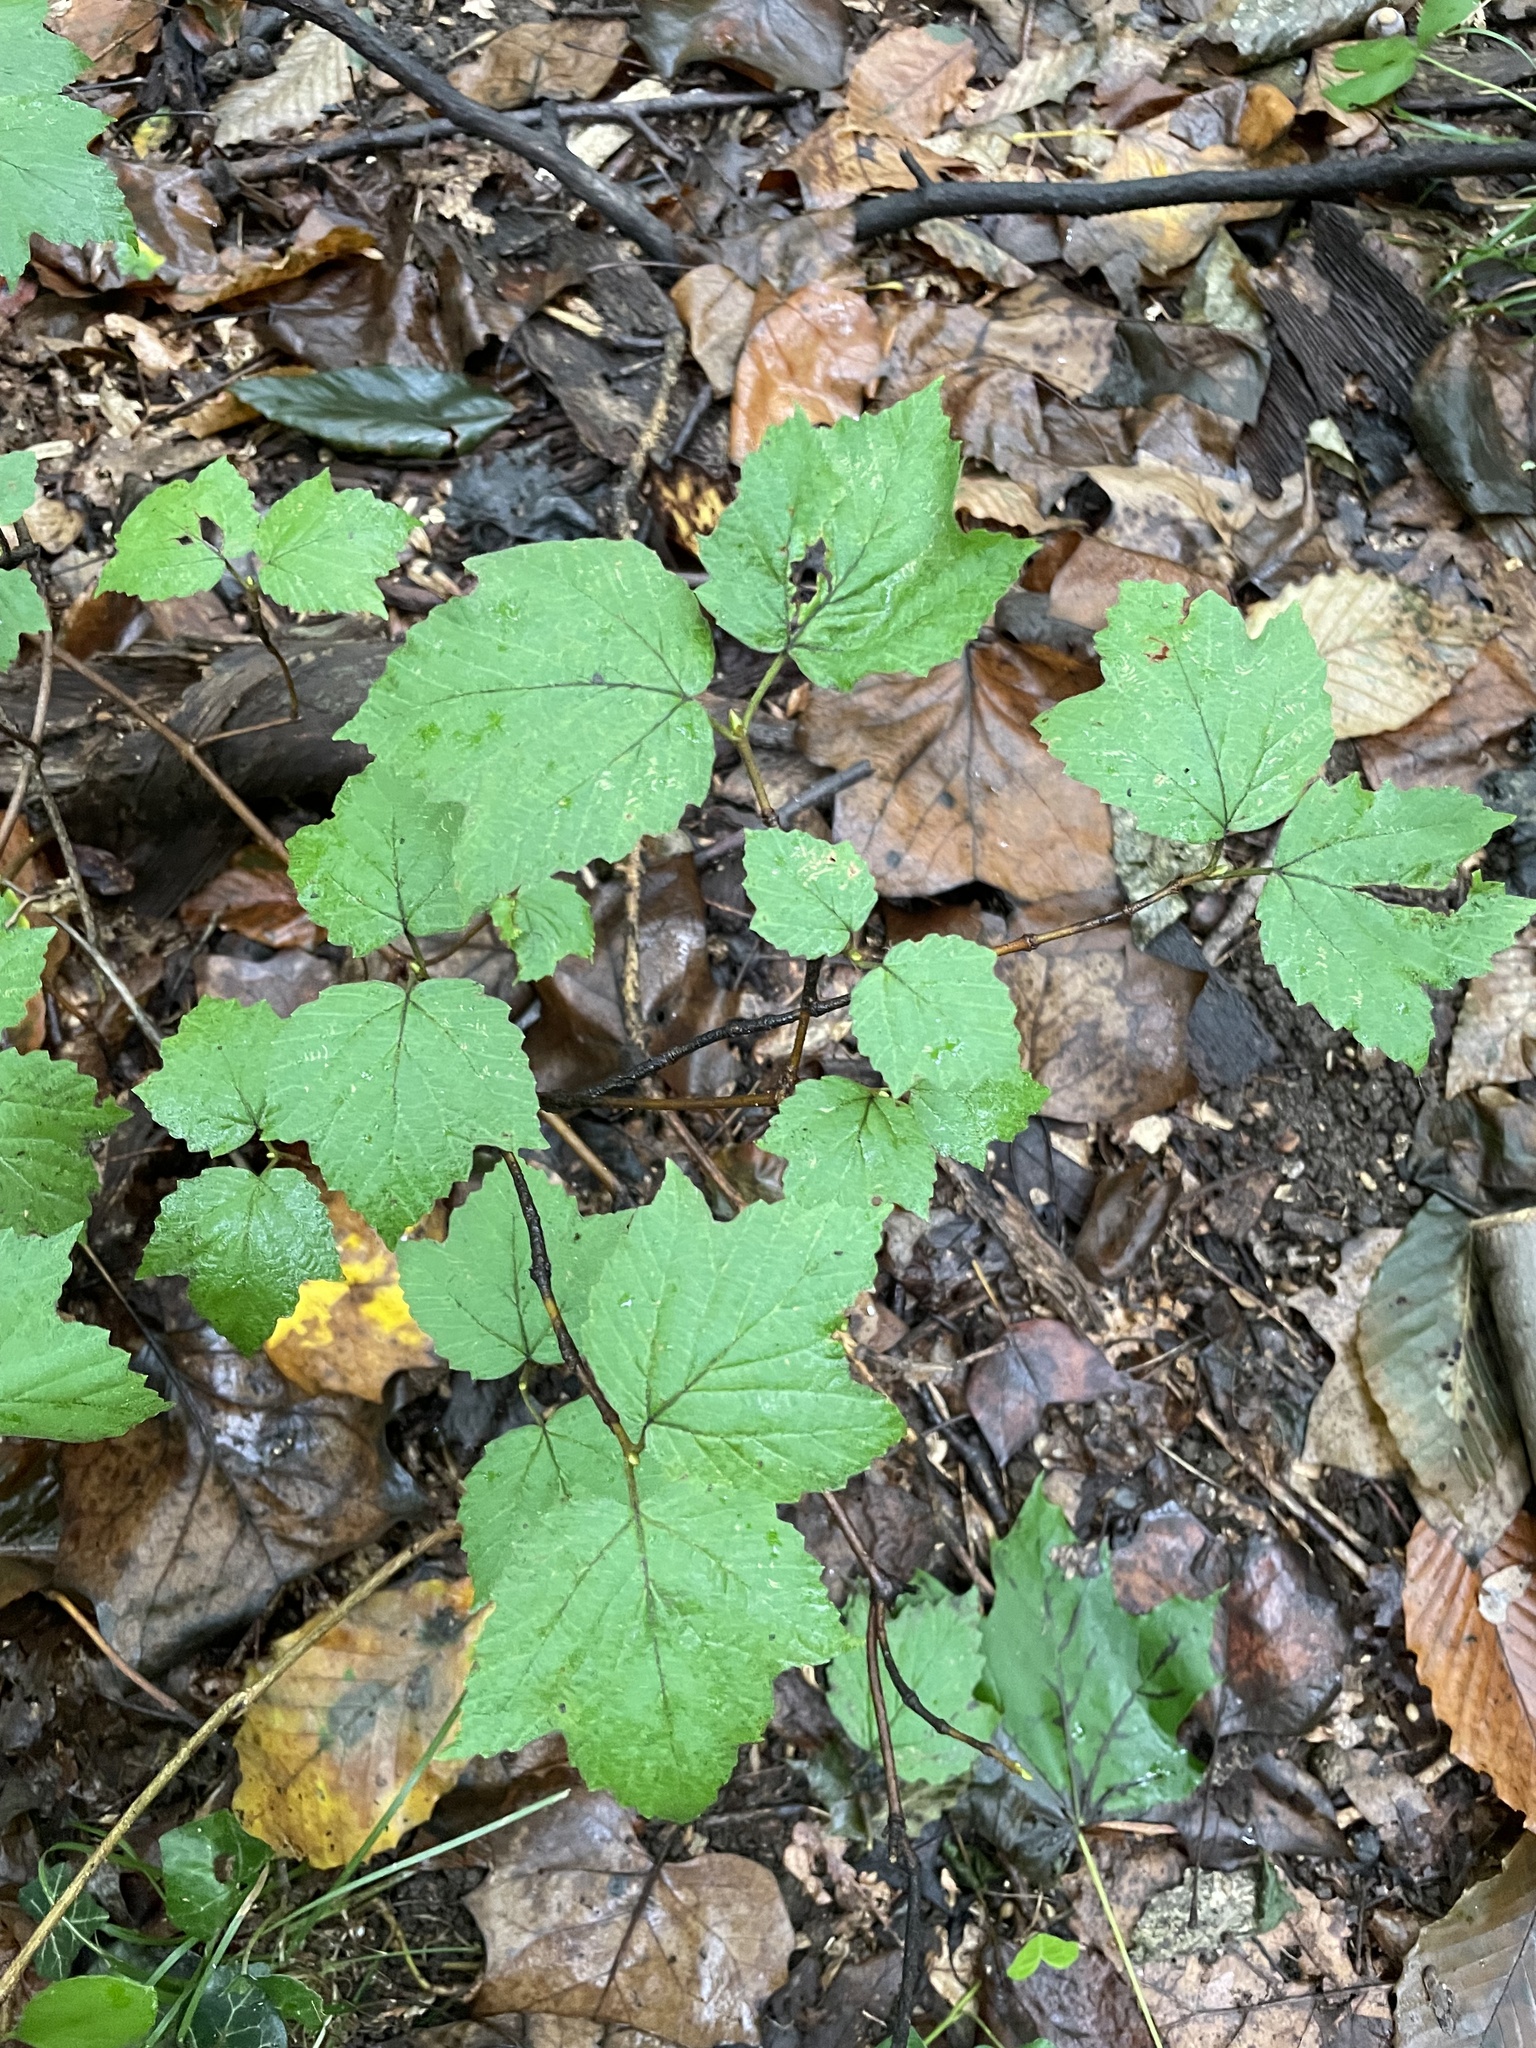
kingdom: Plantae
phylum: Tracheophyta
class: Magnoliopsida
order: Dipsacales
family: Viburnaceae
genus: Viburnum
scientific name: Viburnum acerifolium
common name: Dockmackie
